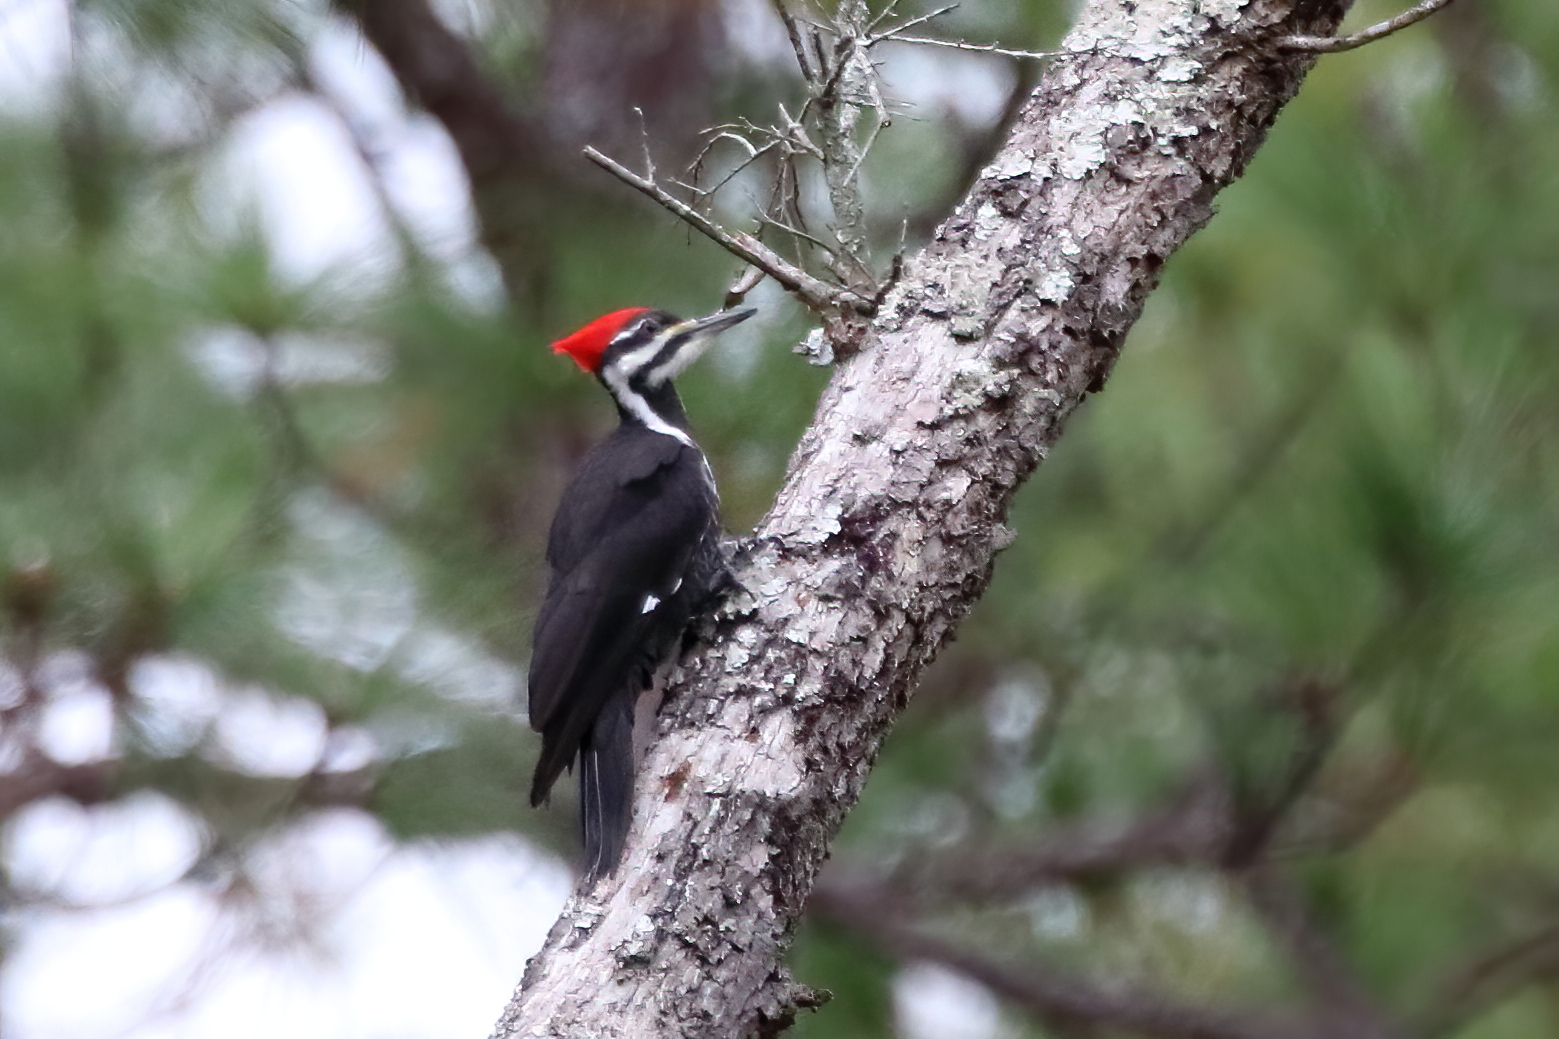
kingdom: Animalia
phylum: Chordata
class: Aves
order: Piciformes
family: Picidae
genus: Dryocopus
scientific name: Dryocopus pileatus
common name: Pileated woodpecker
